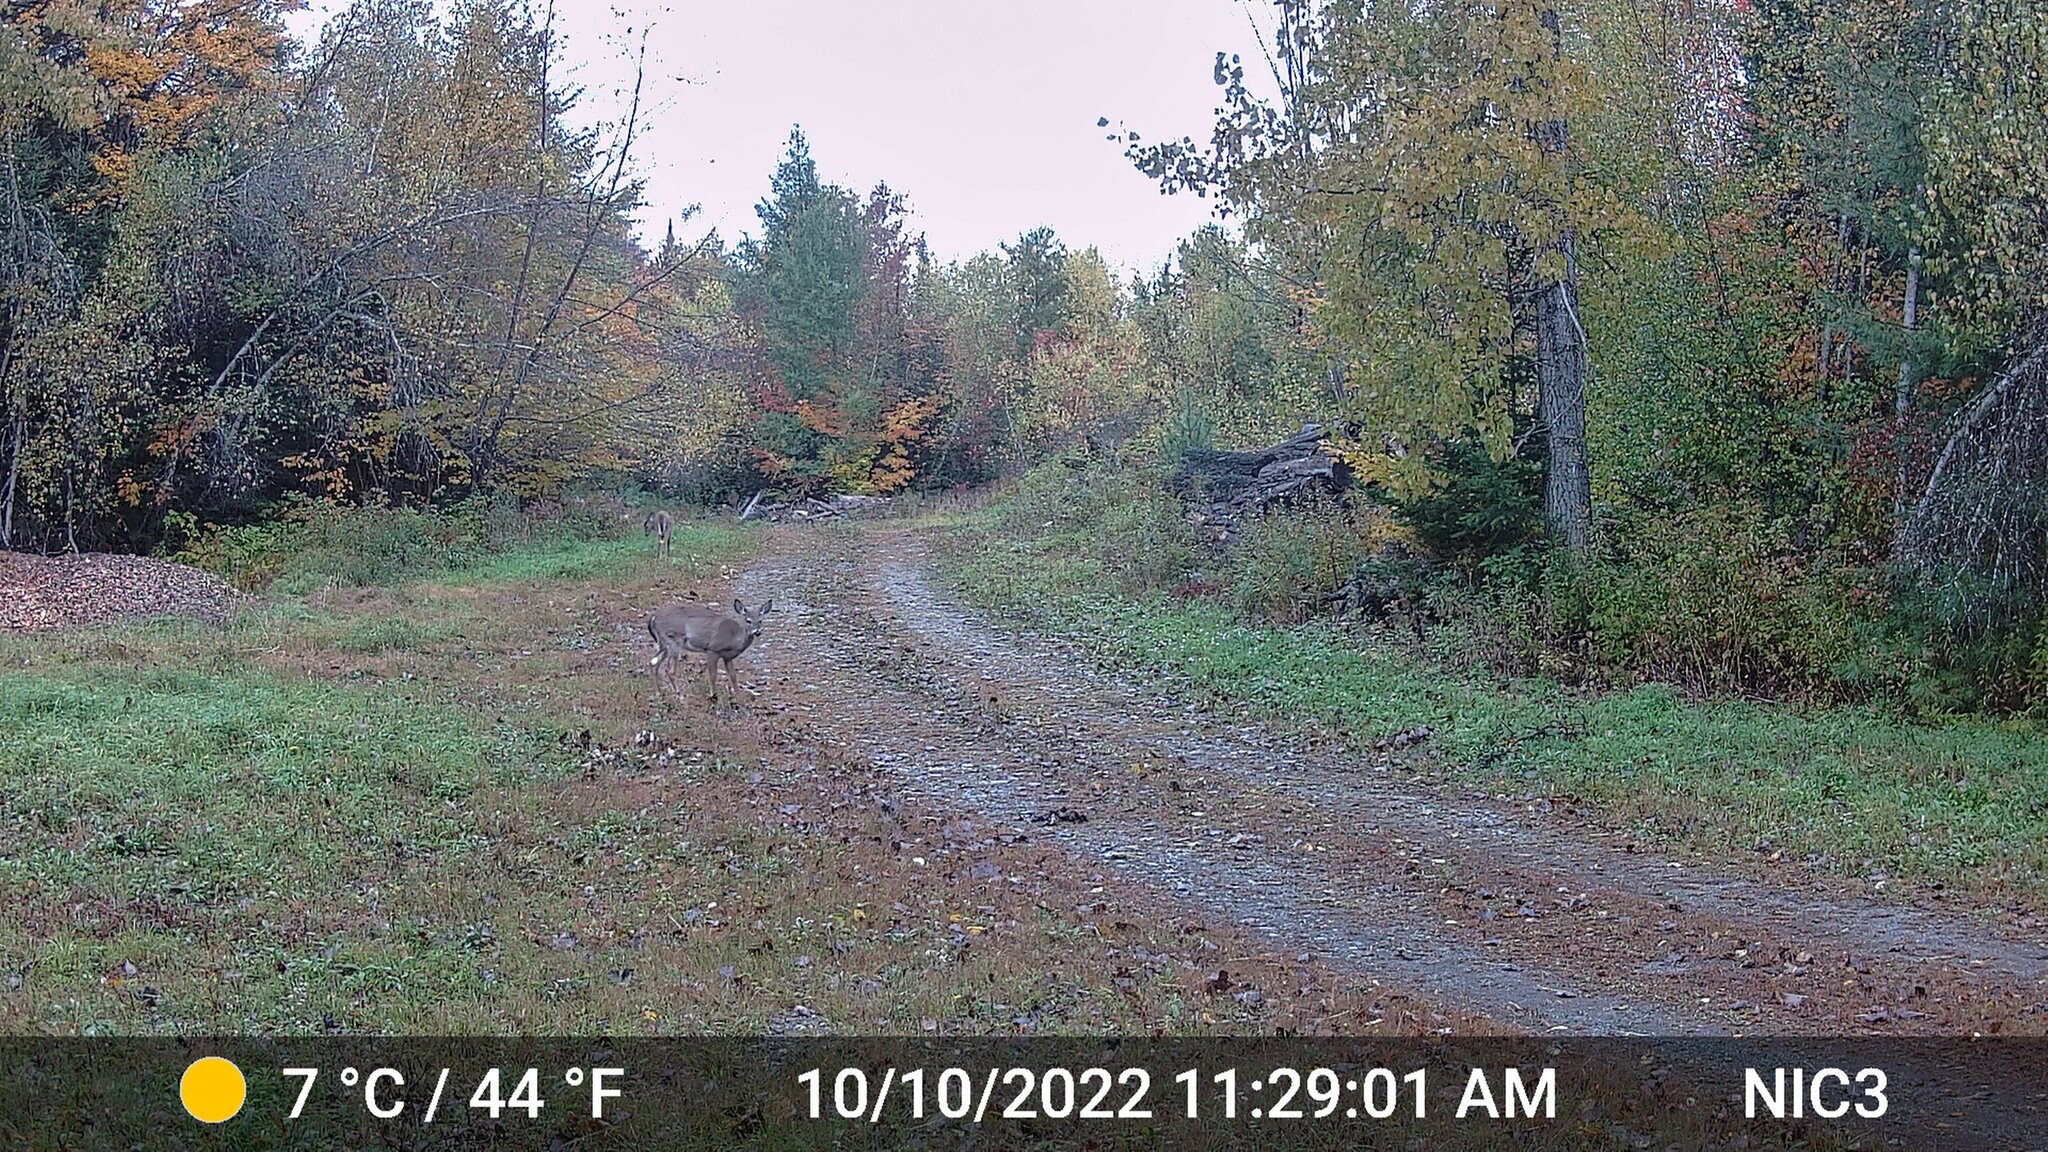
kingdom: Animalia
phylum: Chordata
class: Mammalia
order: Artiodactyla
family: Cervidae
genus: Odocoileus
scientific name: Odocoileus virginianus
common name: White-tailed deer
